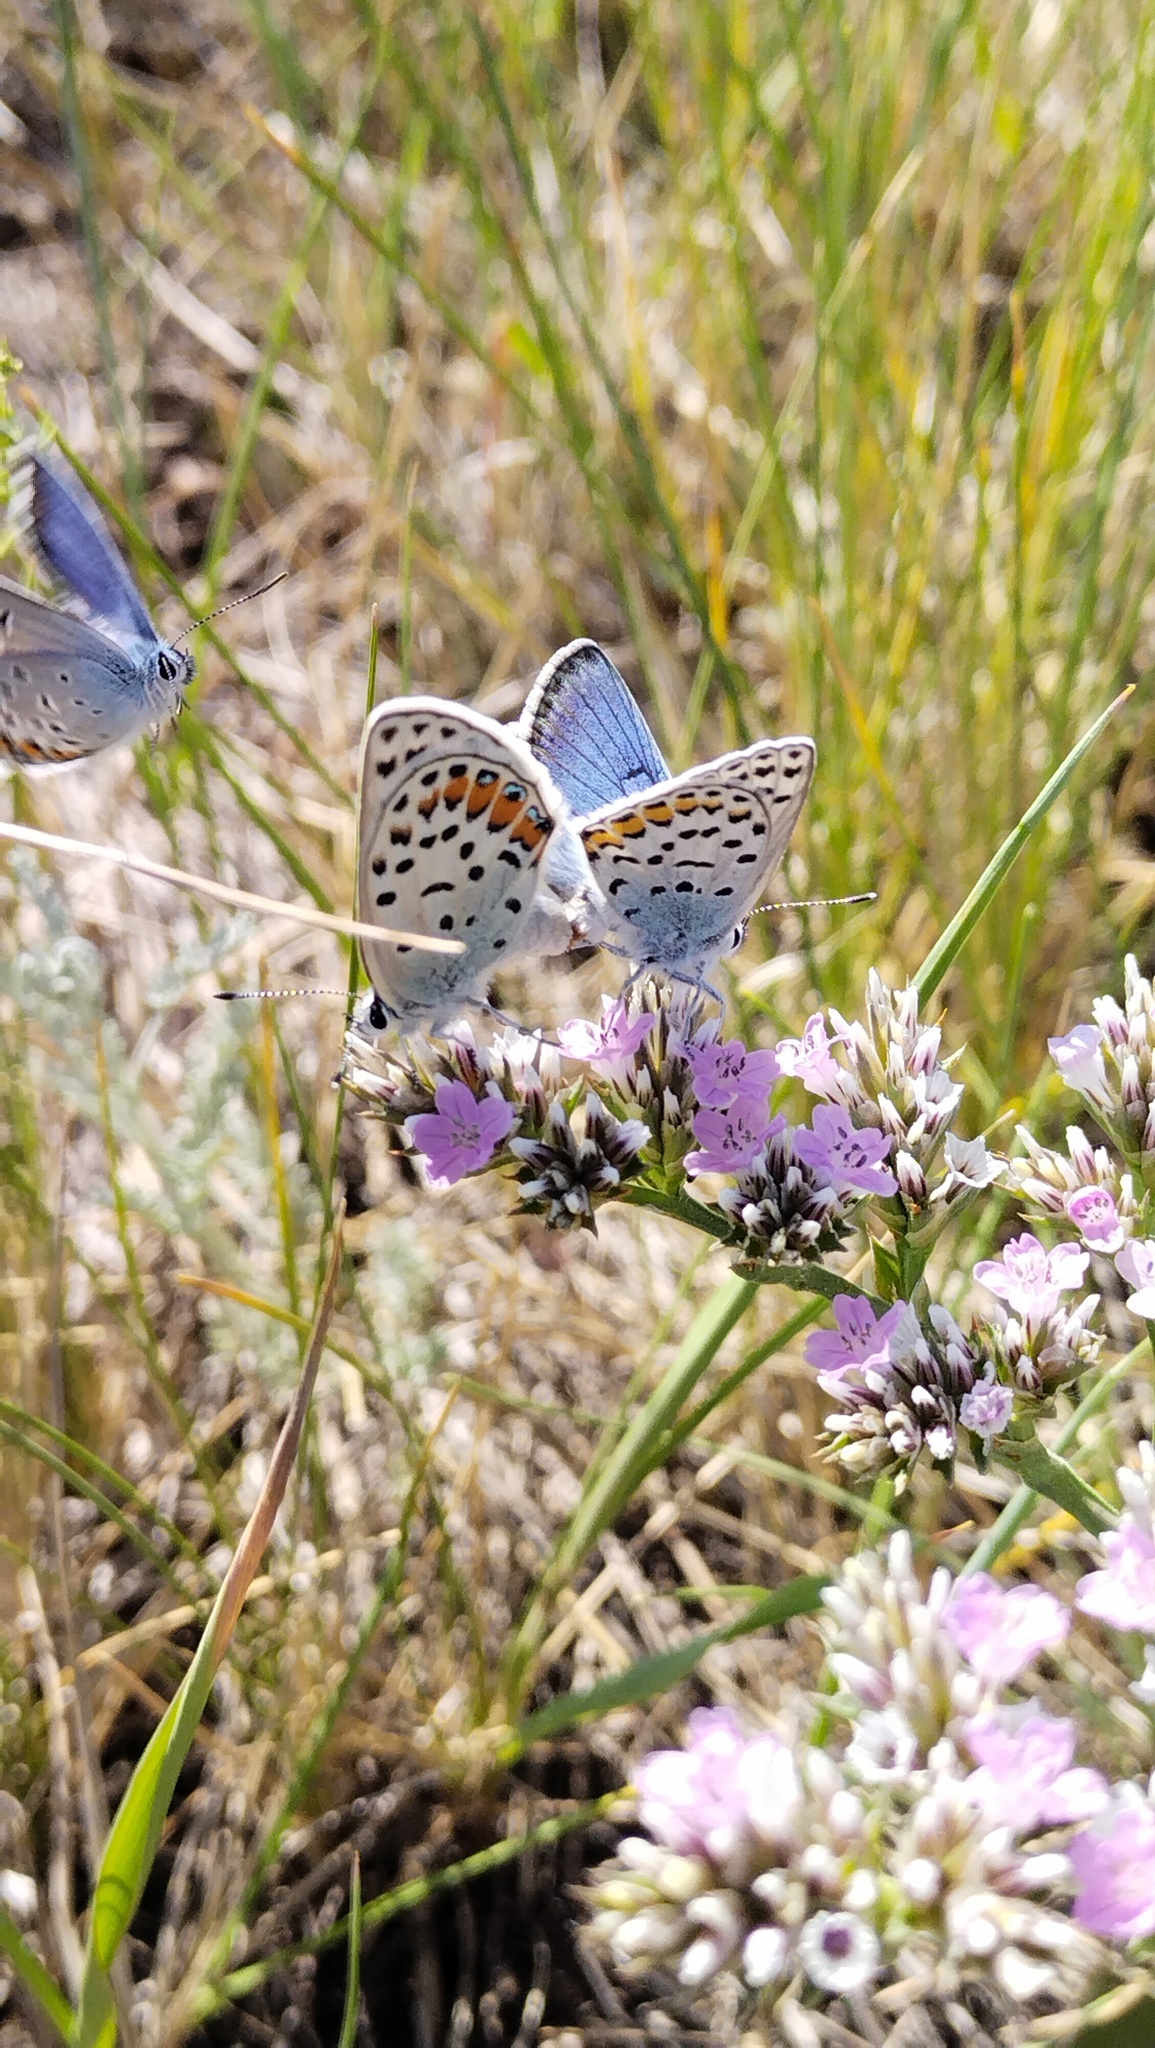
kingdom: Animalia
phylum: Arthropoda
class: Insecta
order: Lepidoptera
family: Lycaenidae
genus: Glabroculus
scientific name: Glabroculus cyane
